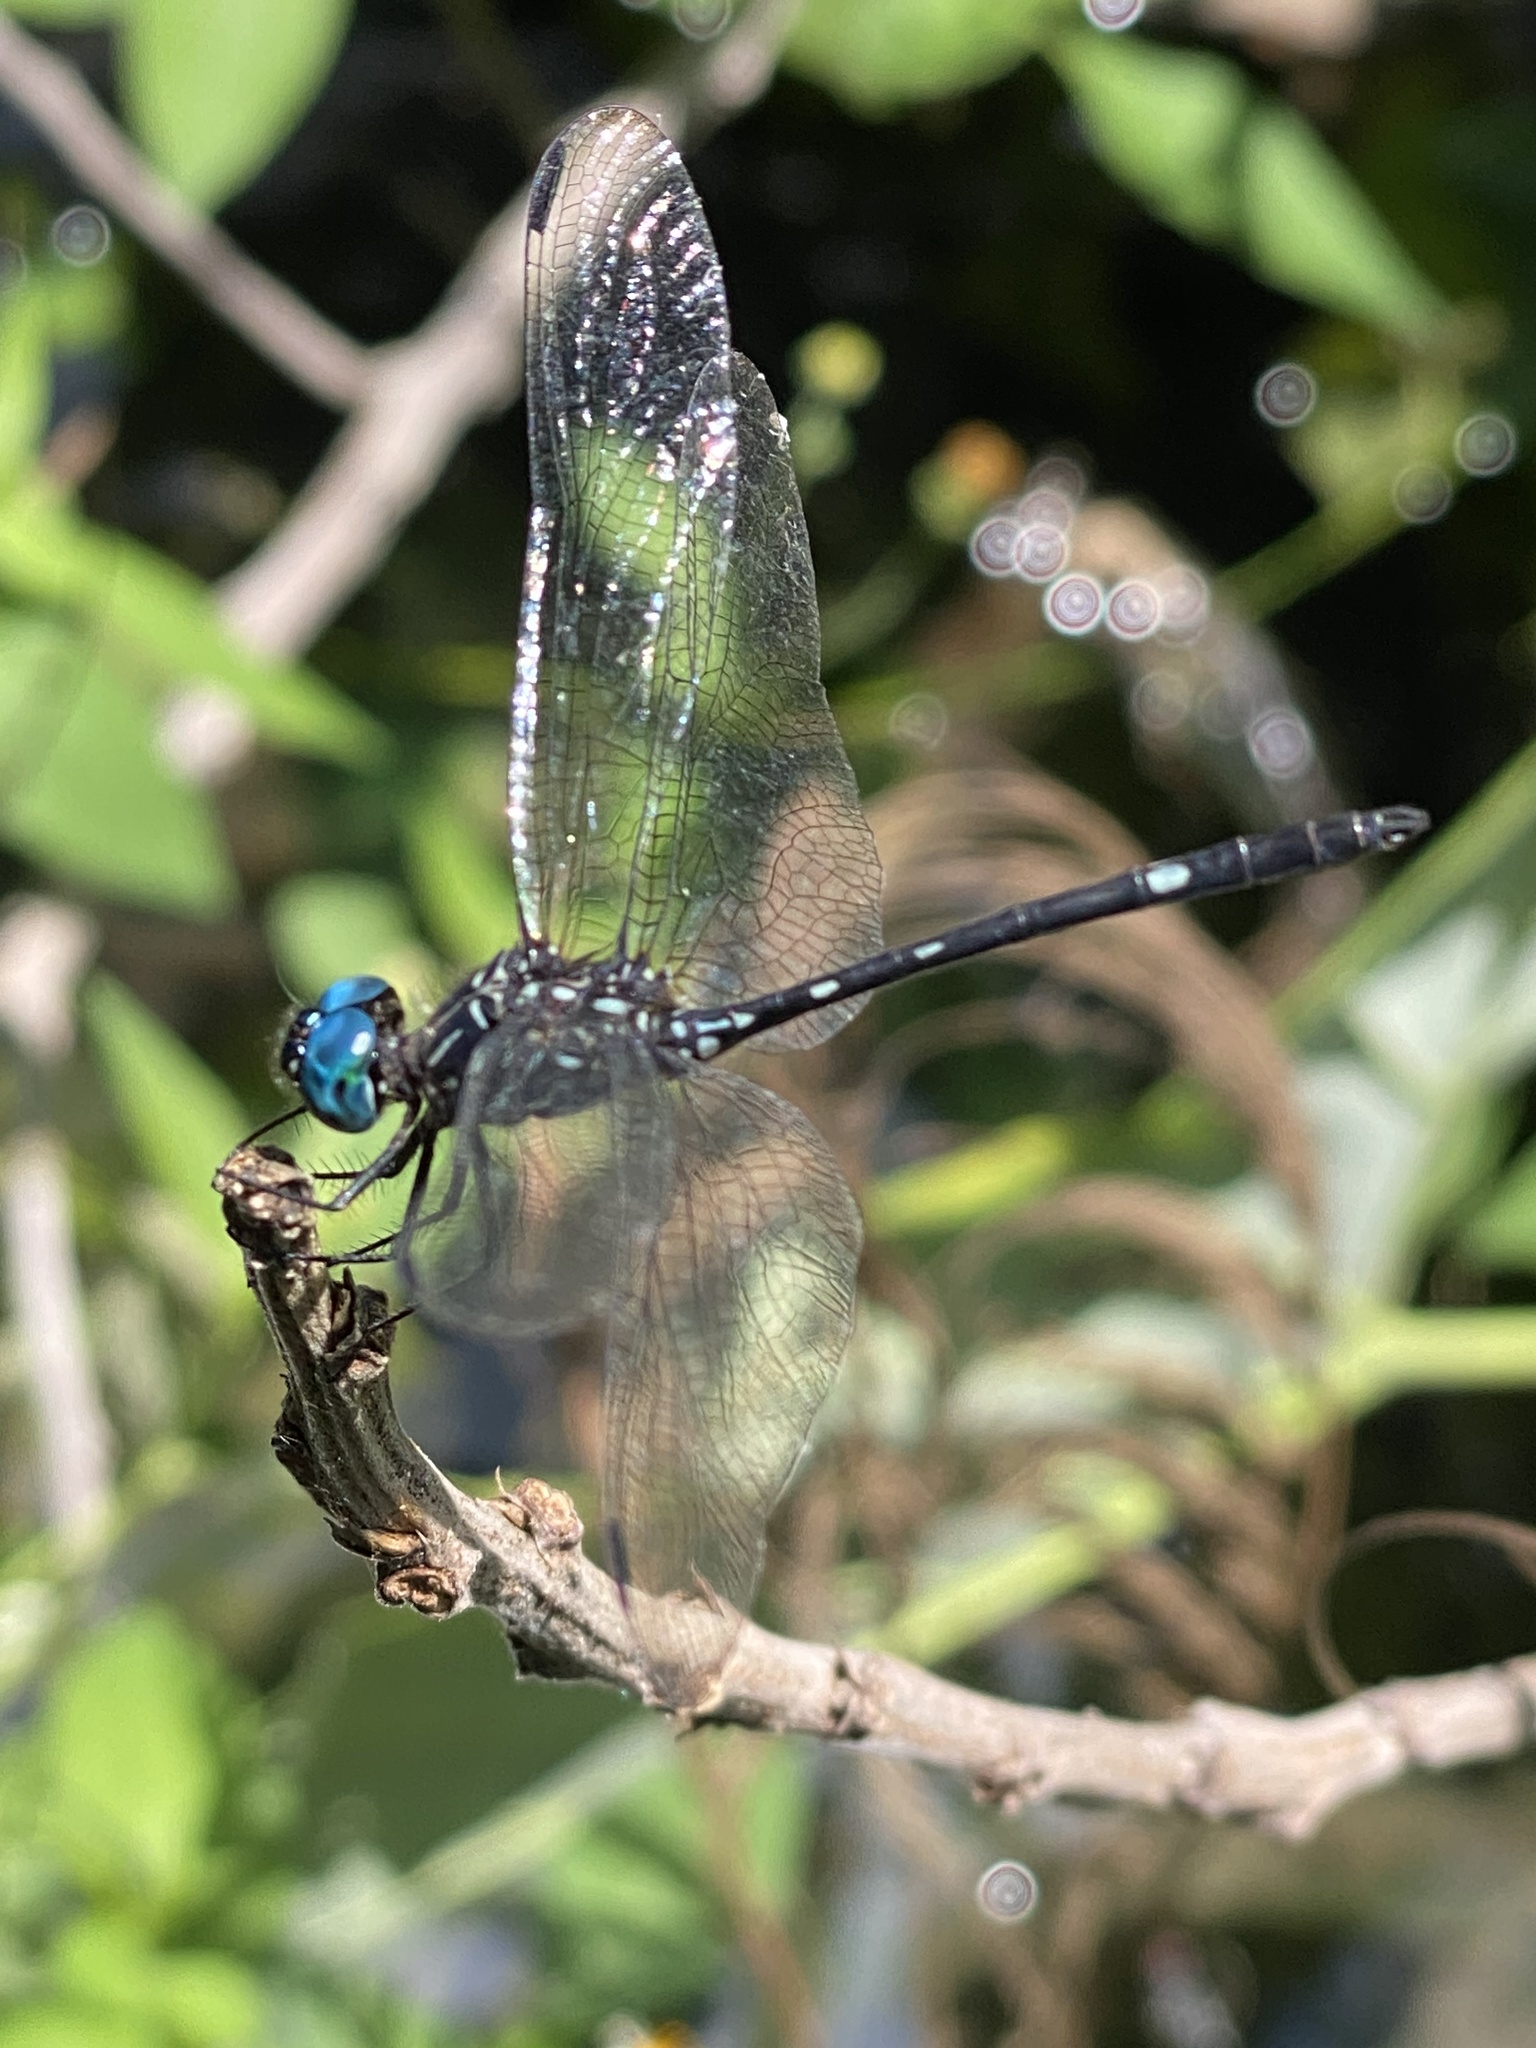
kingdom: Animalia
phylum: Arthropoda
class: Insecta
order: Odonata
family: Libellulidae
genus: Dythemis
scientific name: Dythemis nigra
